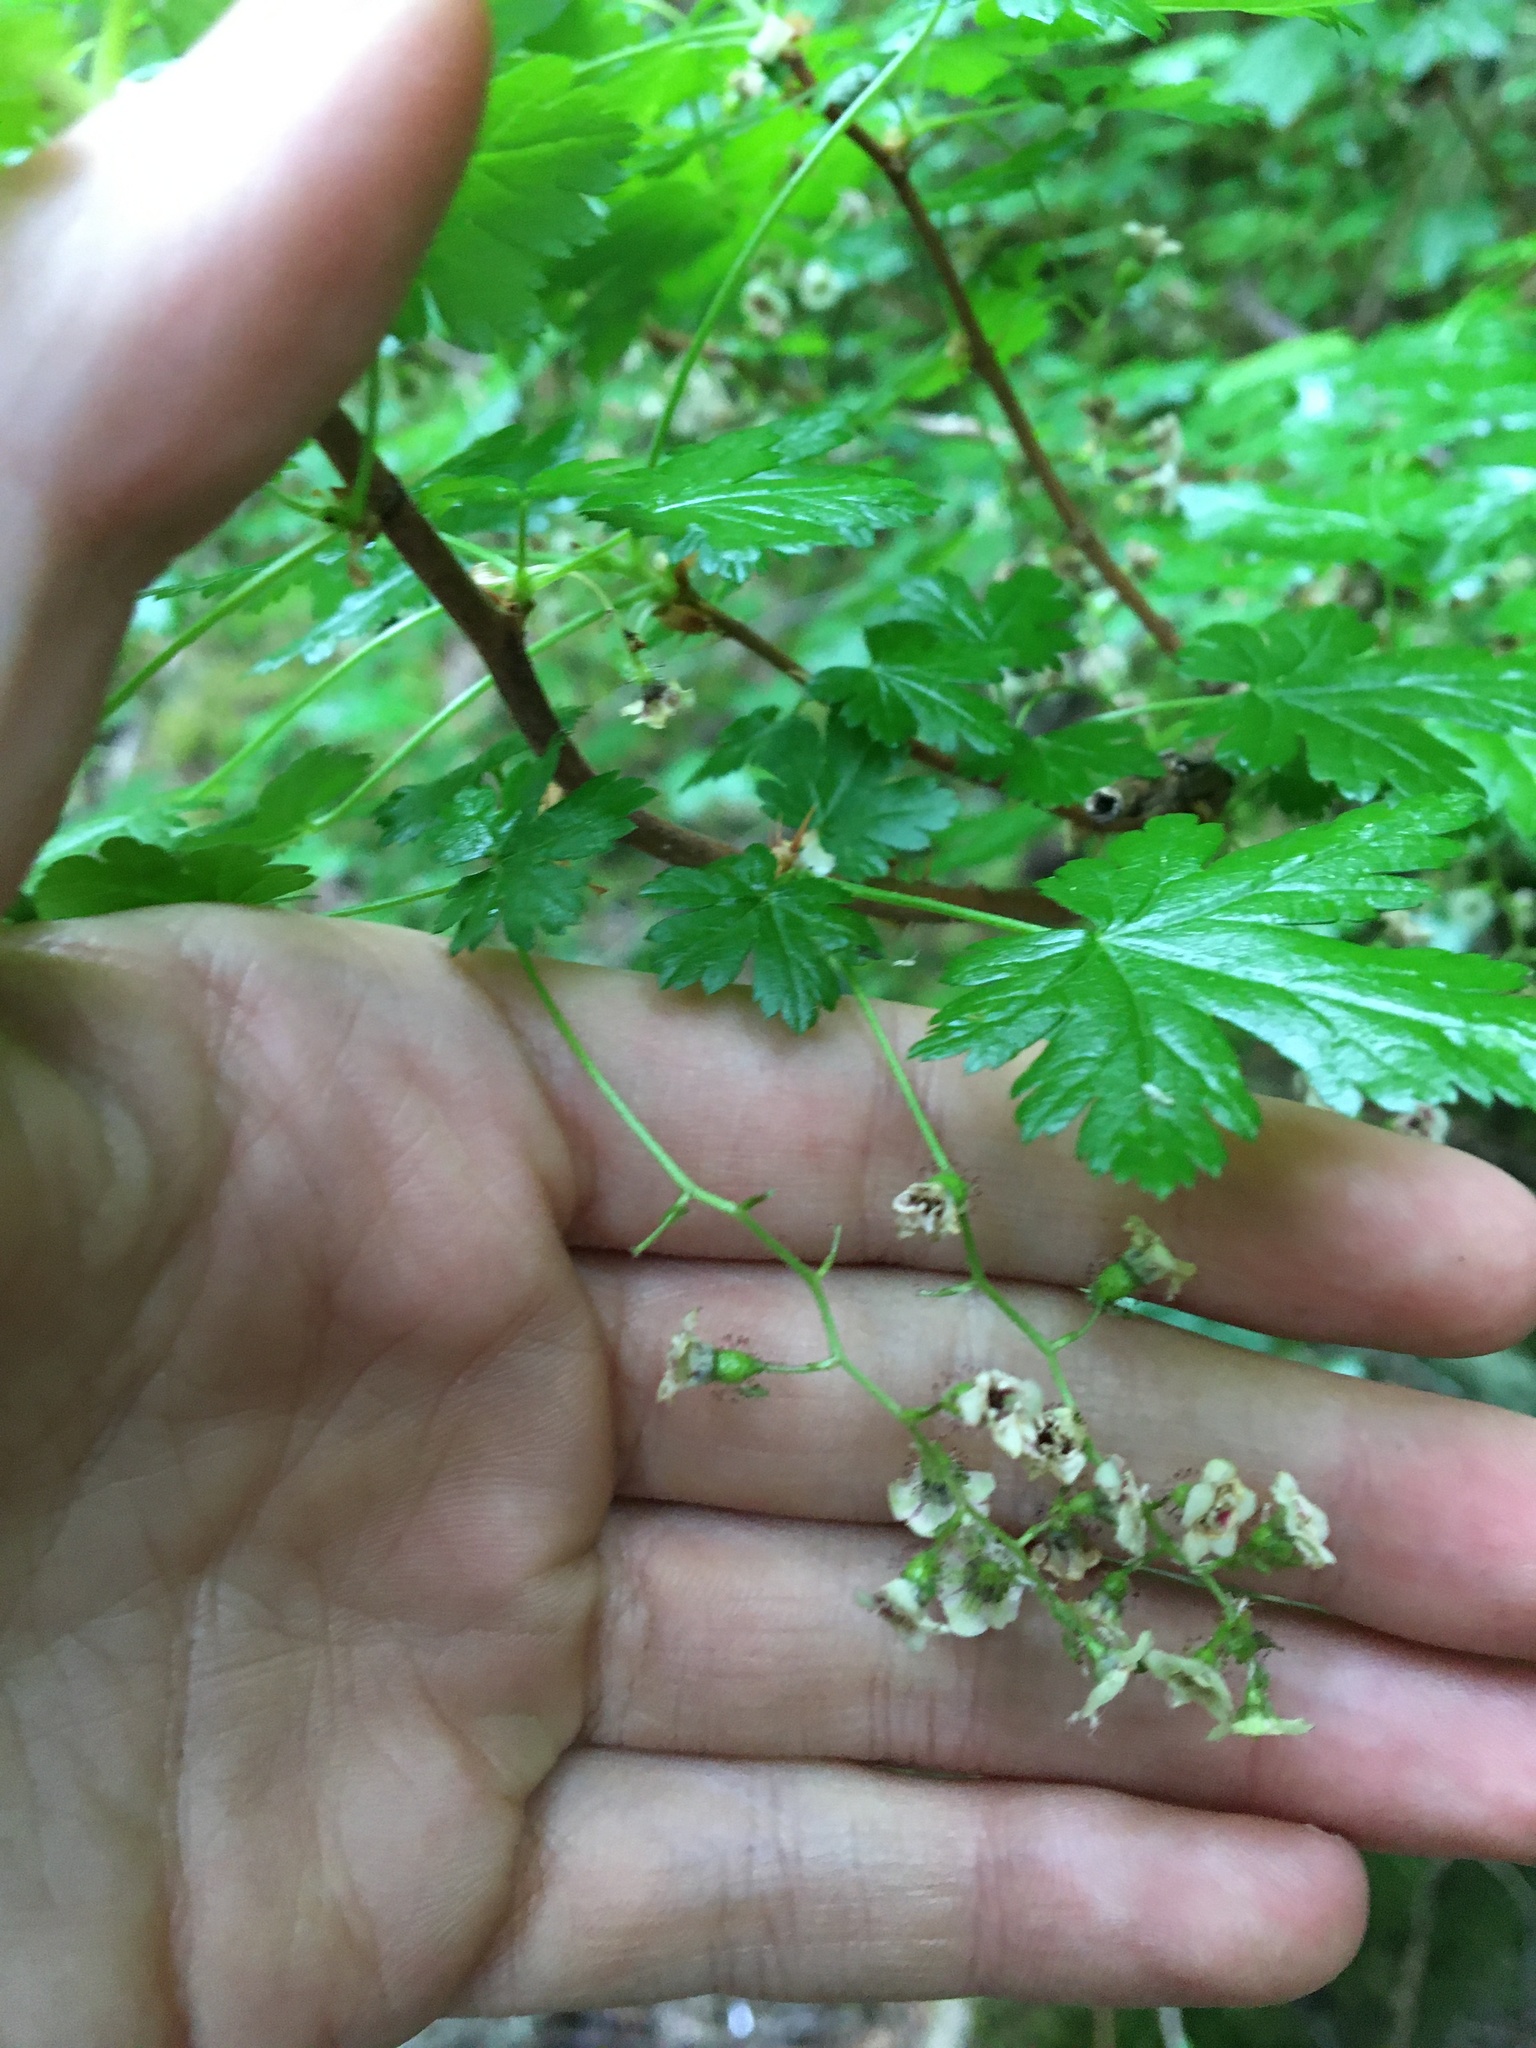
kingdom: Plantae
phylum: Tracheophyta
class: Magnoliopsida
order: Saxifragales
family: Grossulariaceae
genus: Ribes
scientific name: Ribes lacustre
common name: Black gooseberry
